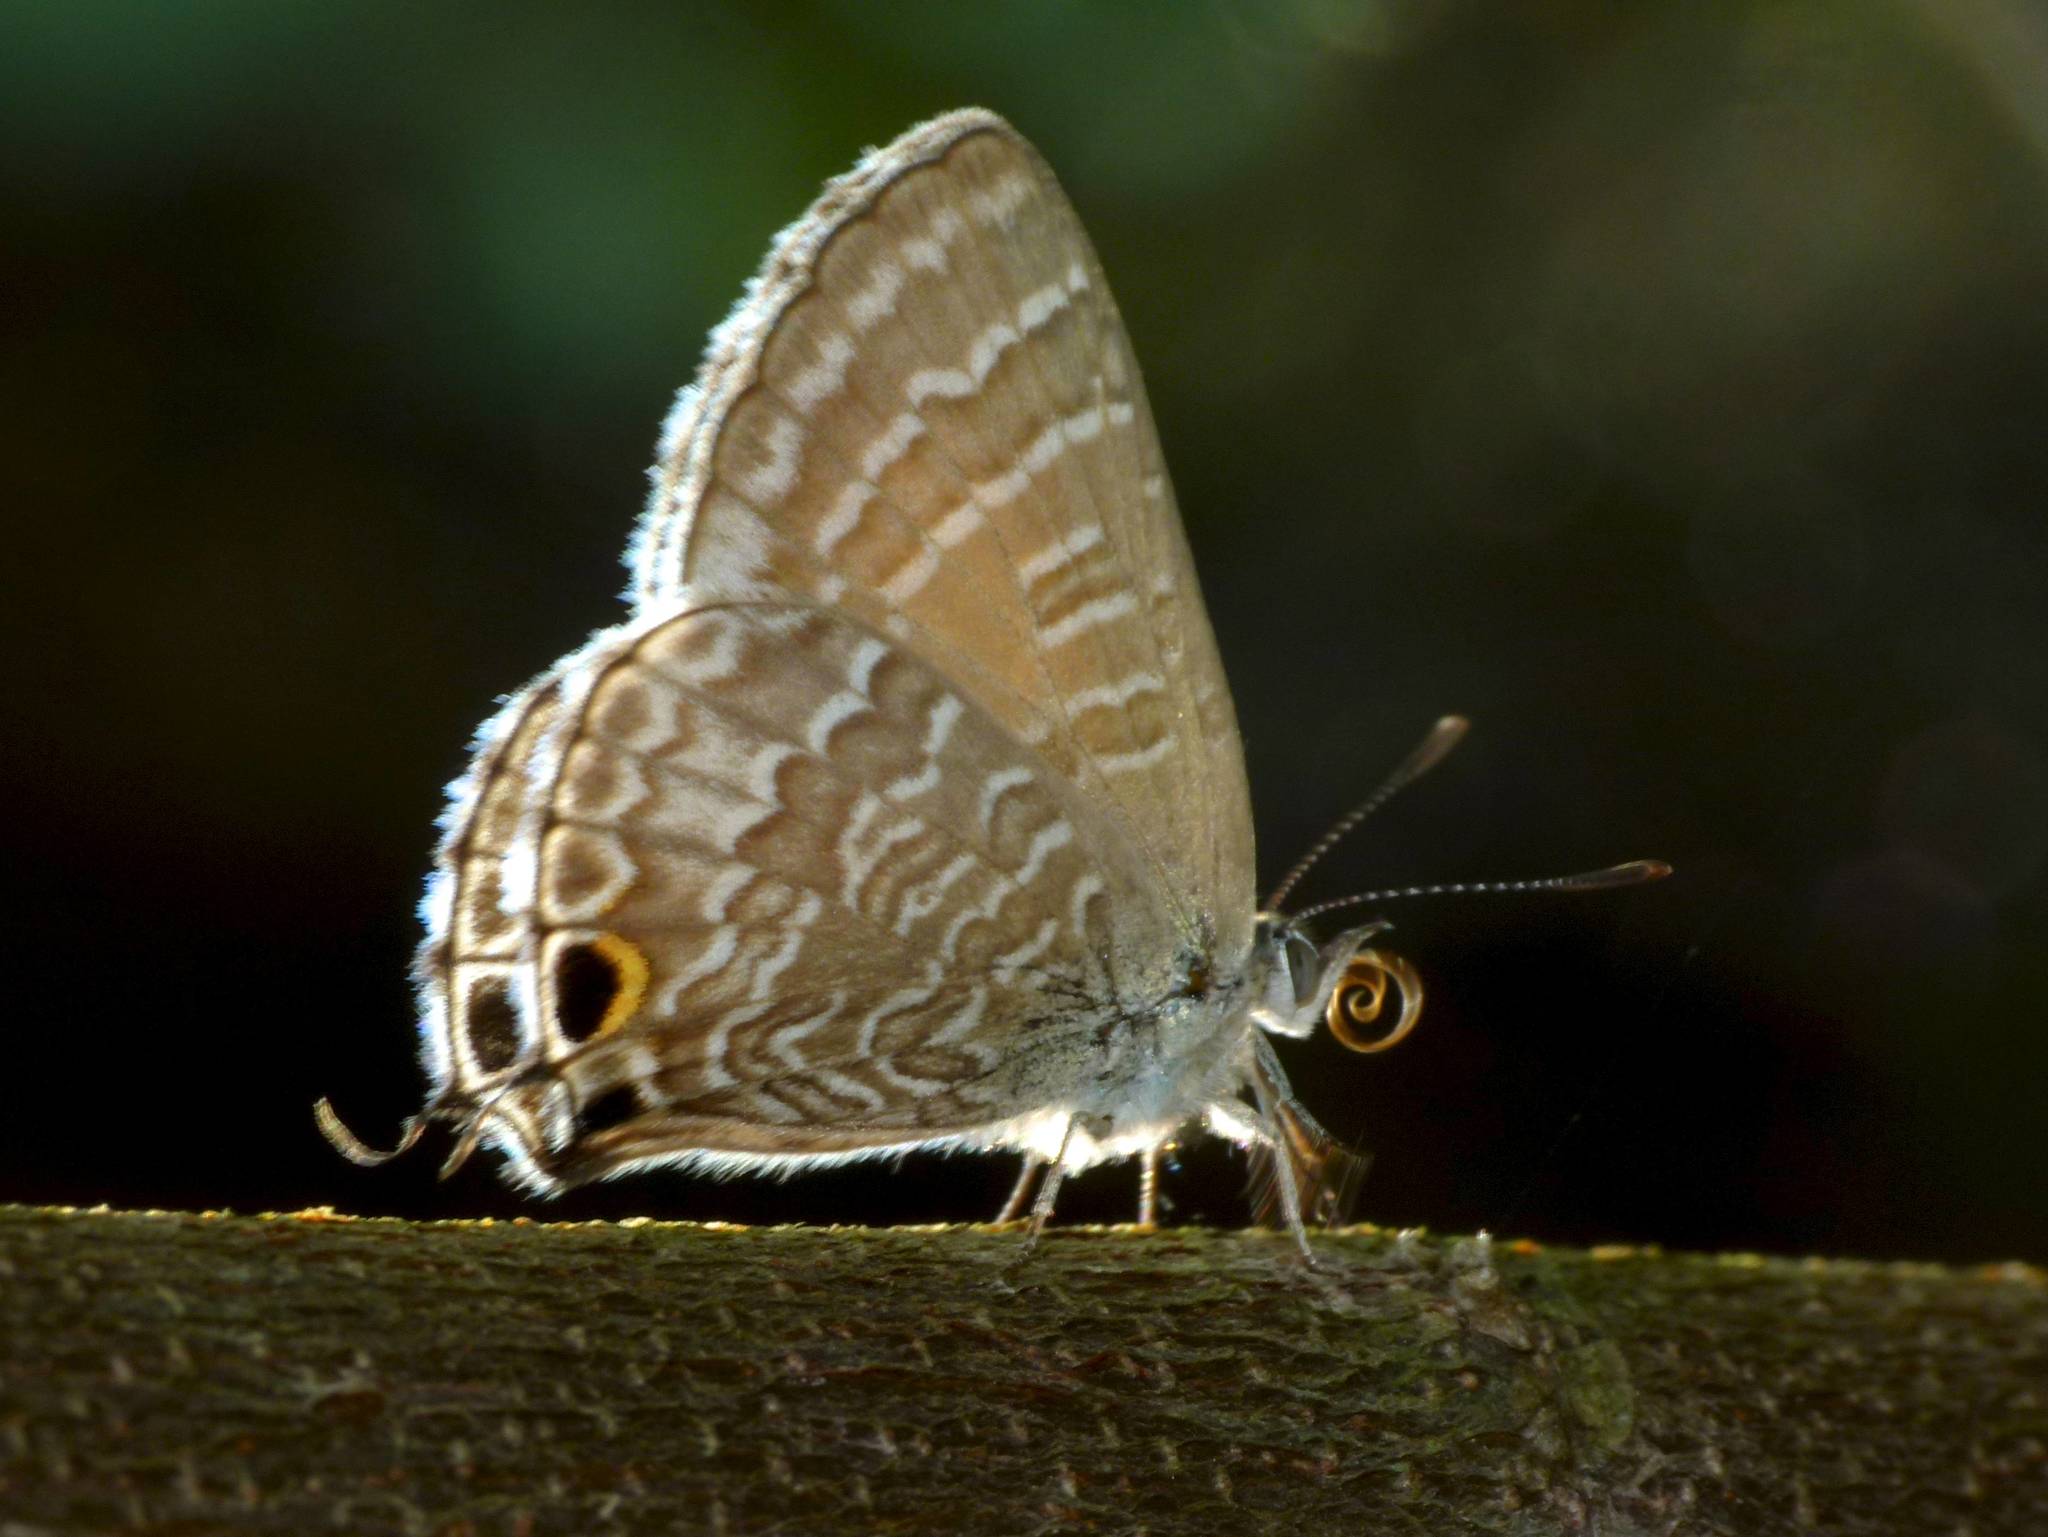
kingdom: Animalia
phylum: Arthropoda
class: Insecta
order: Lepidoptera
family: Lycaenidae
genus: Theclinesthes
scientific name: Theclinesthes onycha
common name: Cycad blue
